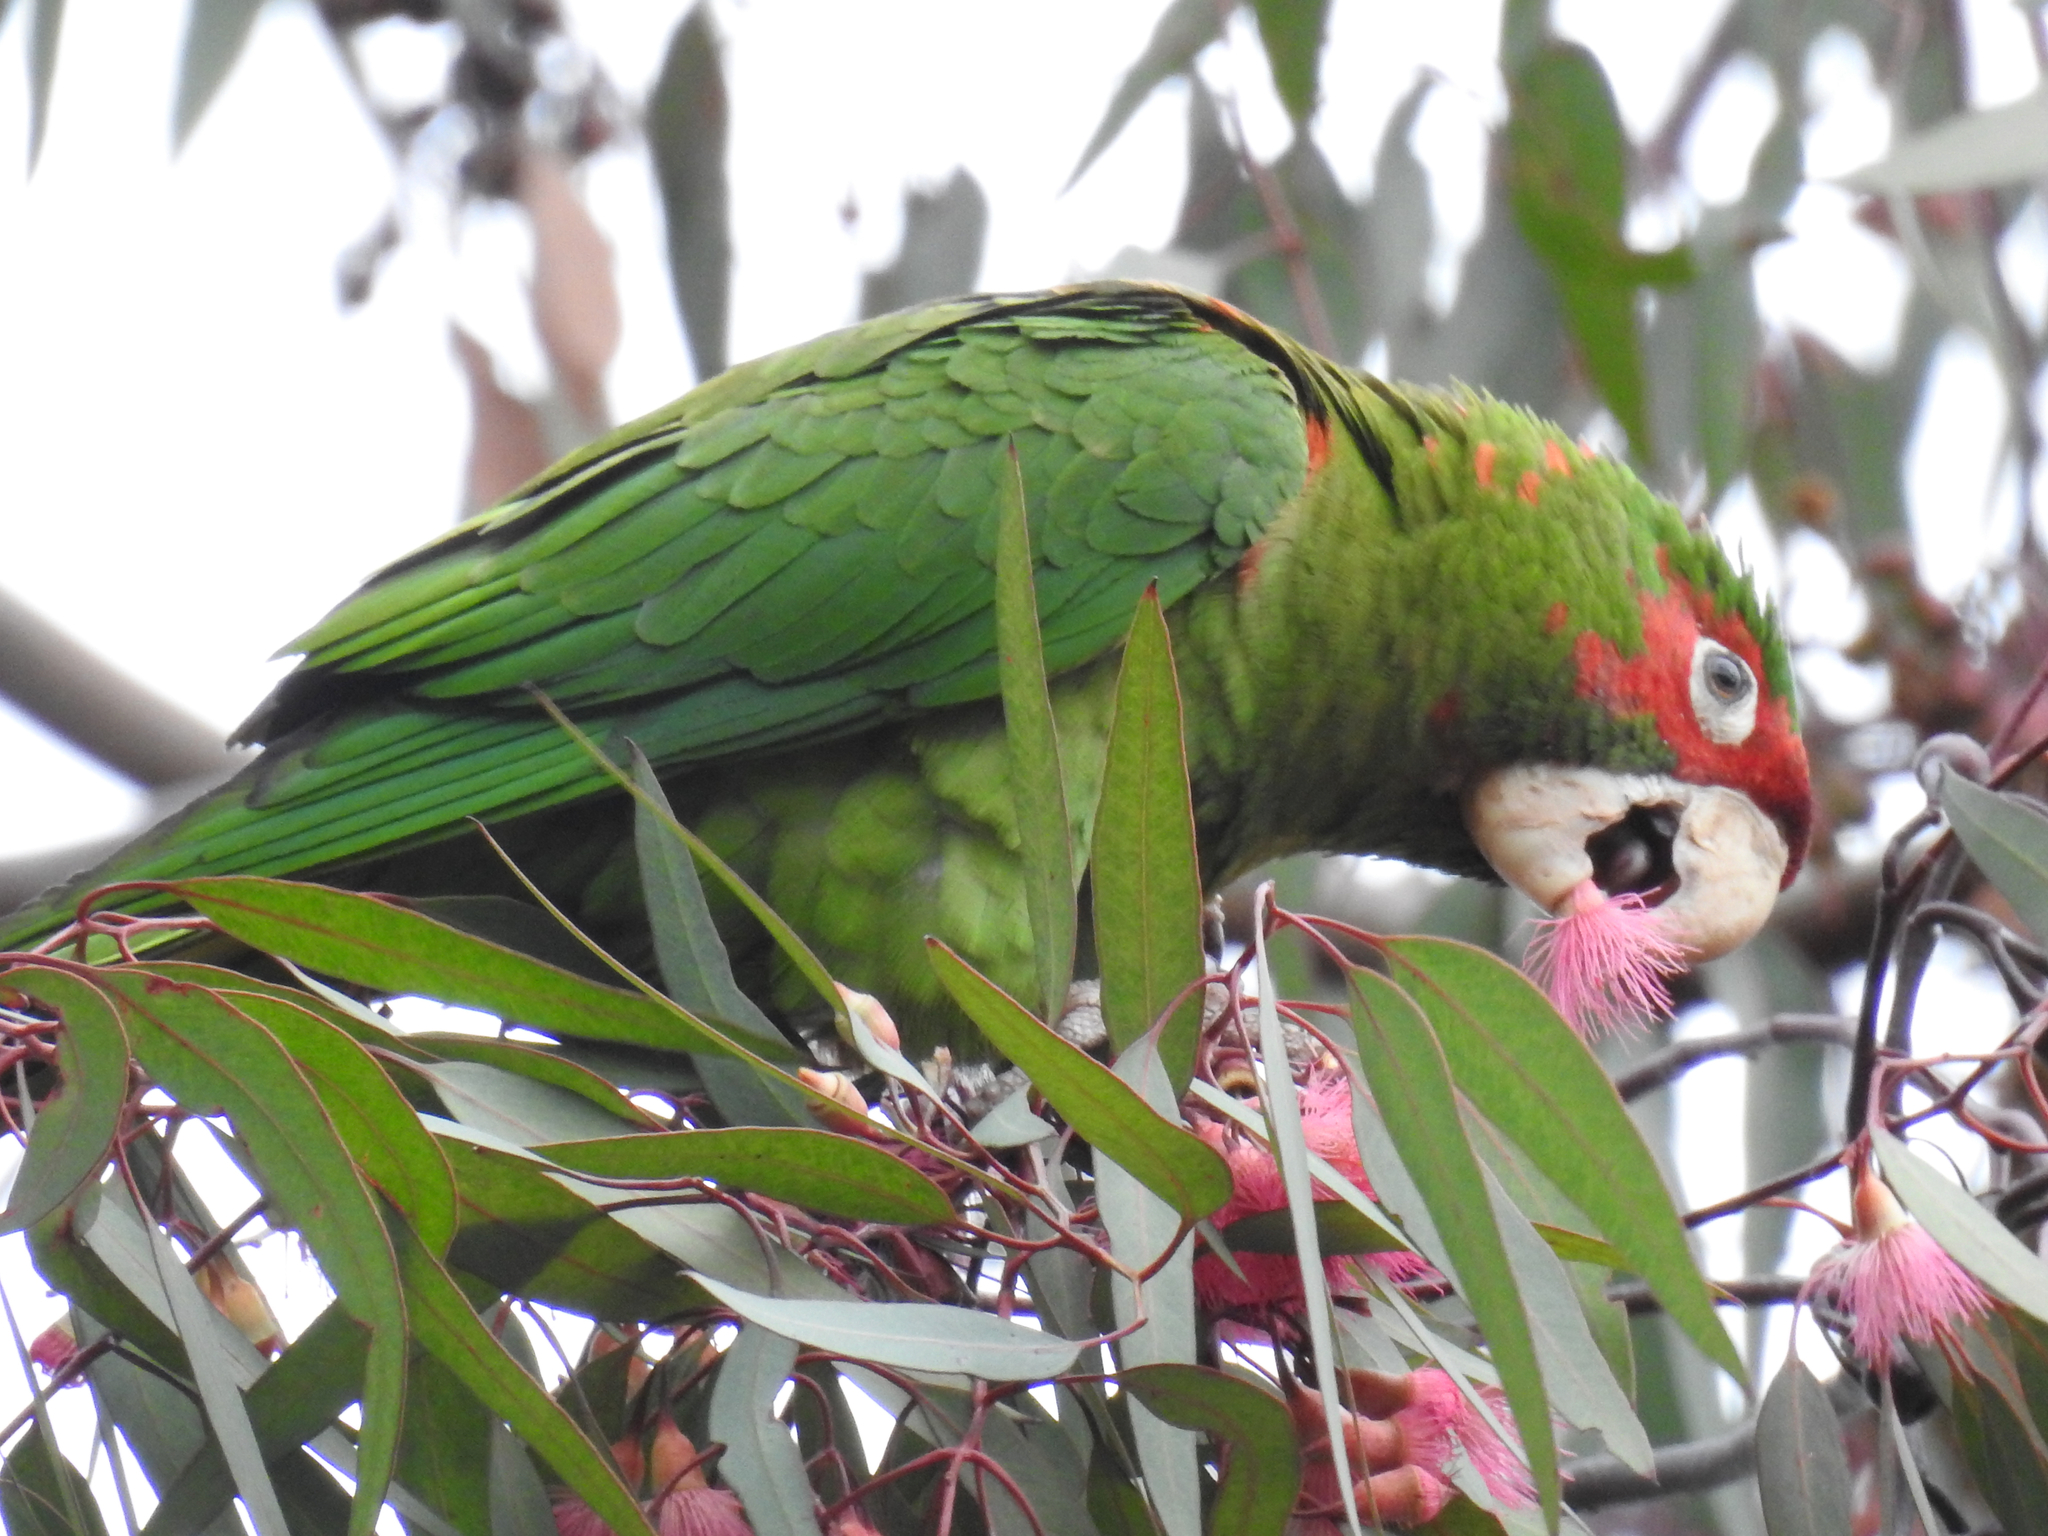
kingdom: Animalia
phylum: Chordata
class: Aves
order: Psittaciformes
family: Psittacidae
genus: Aratinga
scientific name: Aratinga mitrata
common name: Mitred parakeet
